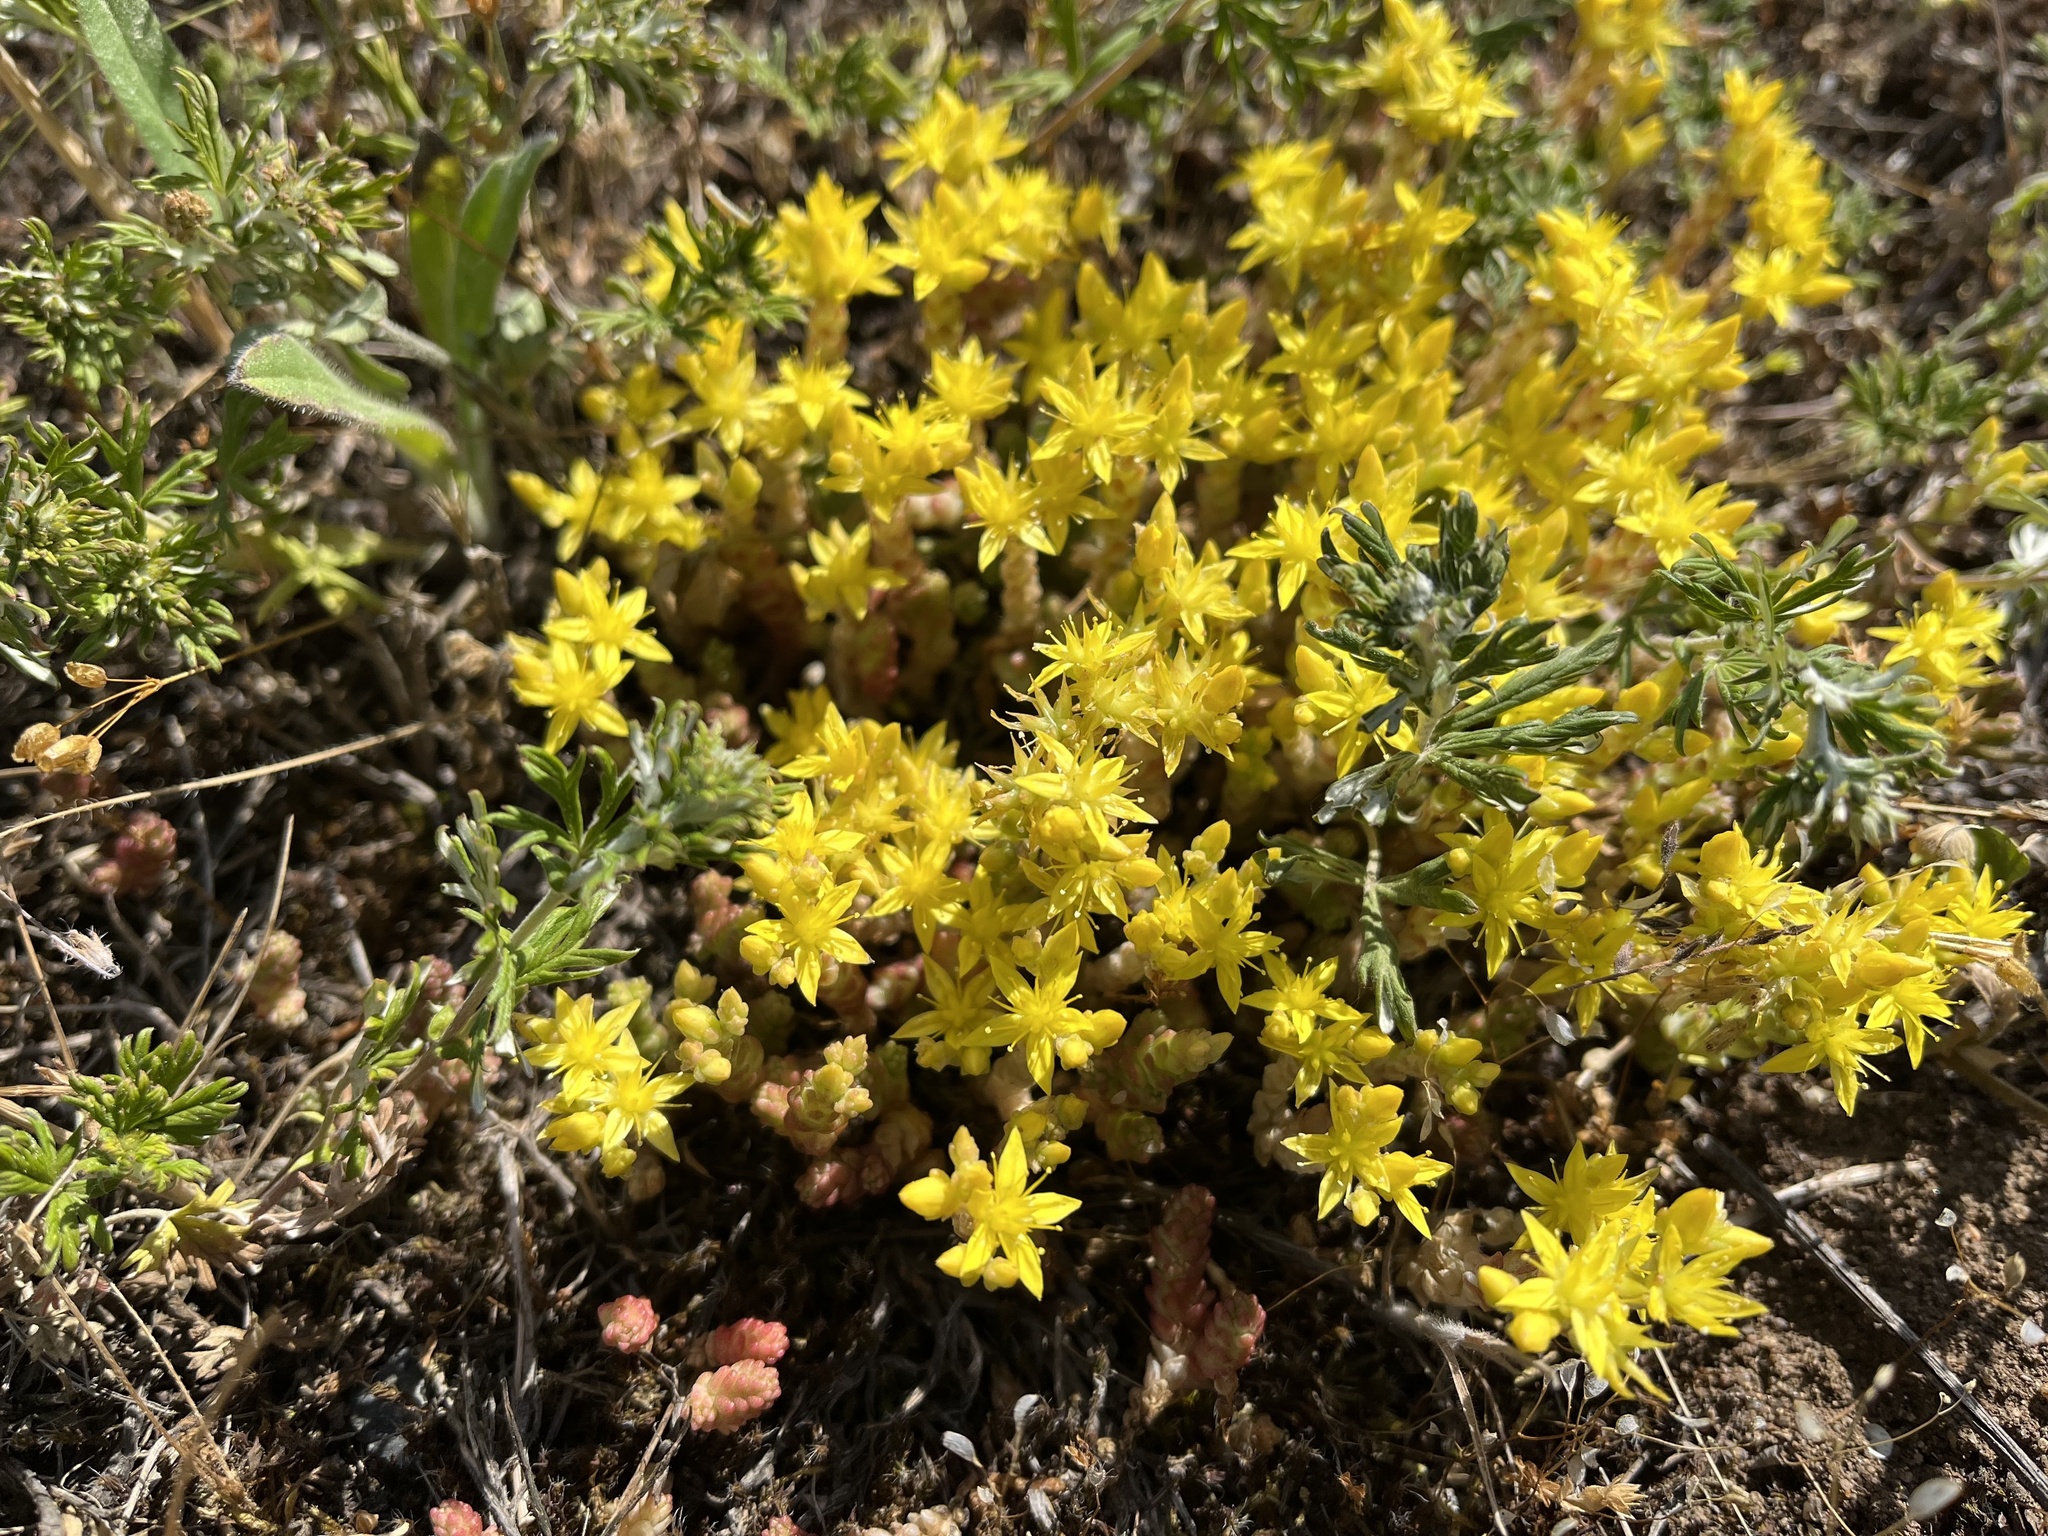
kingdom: Plantae
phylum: Tracheophyta
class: Magnoliopsida
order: Saxifragales
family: Crassulaceae
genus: Sedum
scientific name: Sedum acre
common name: Biting stonecrop
